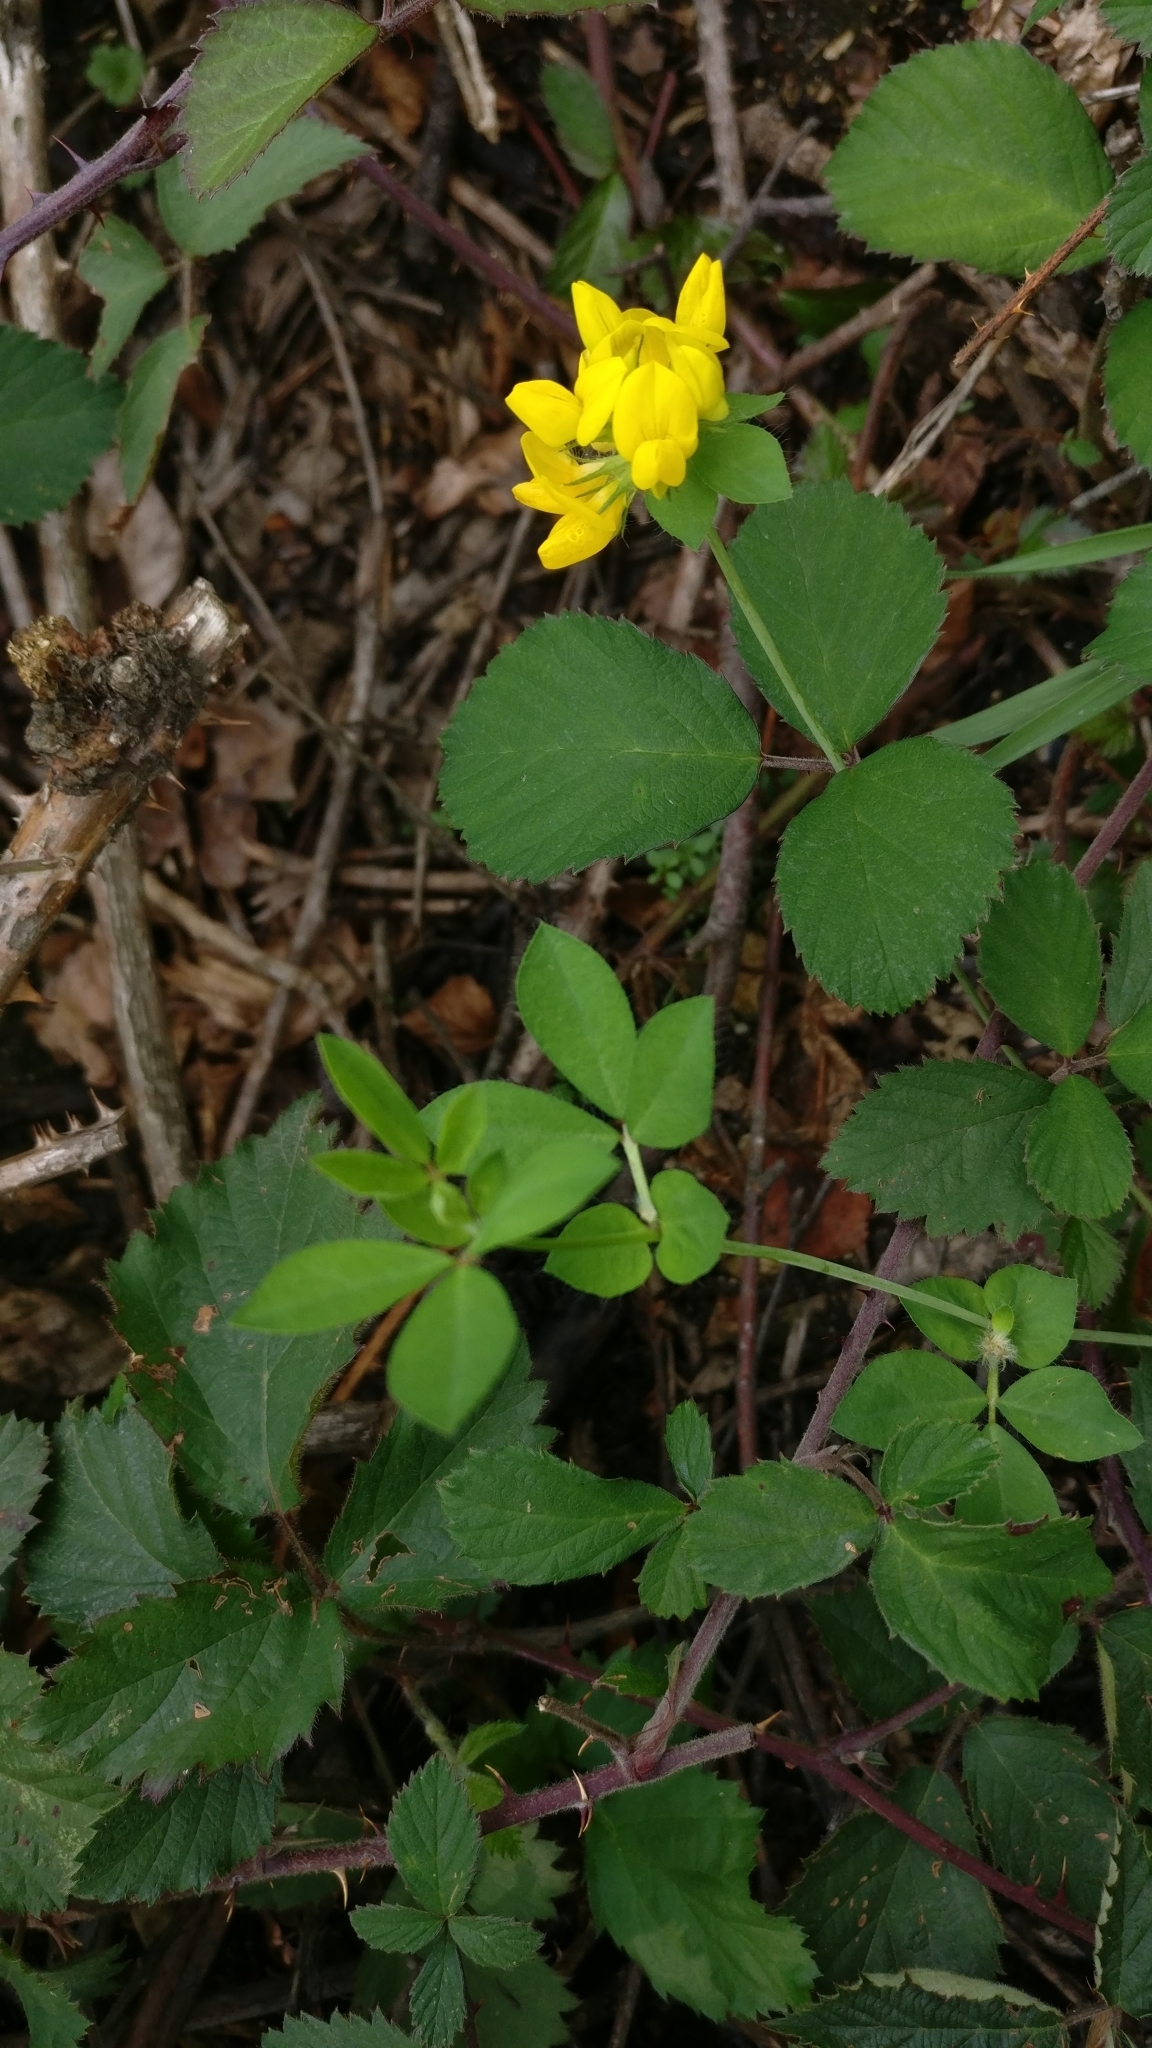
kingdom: Plantae
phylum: Tracheophyta
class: Magnoliopsida
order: Fabales
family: Fabaceae
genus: Lotus
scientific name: Lotus pedunculatus
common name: Greater birdsfoot-trefoil
